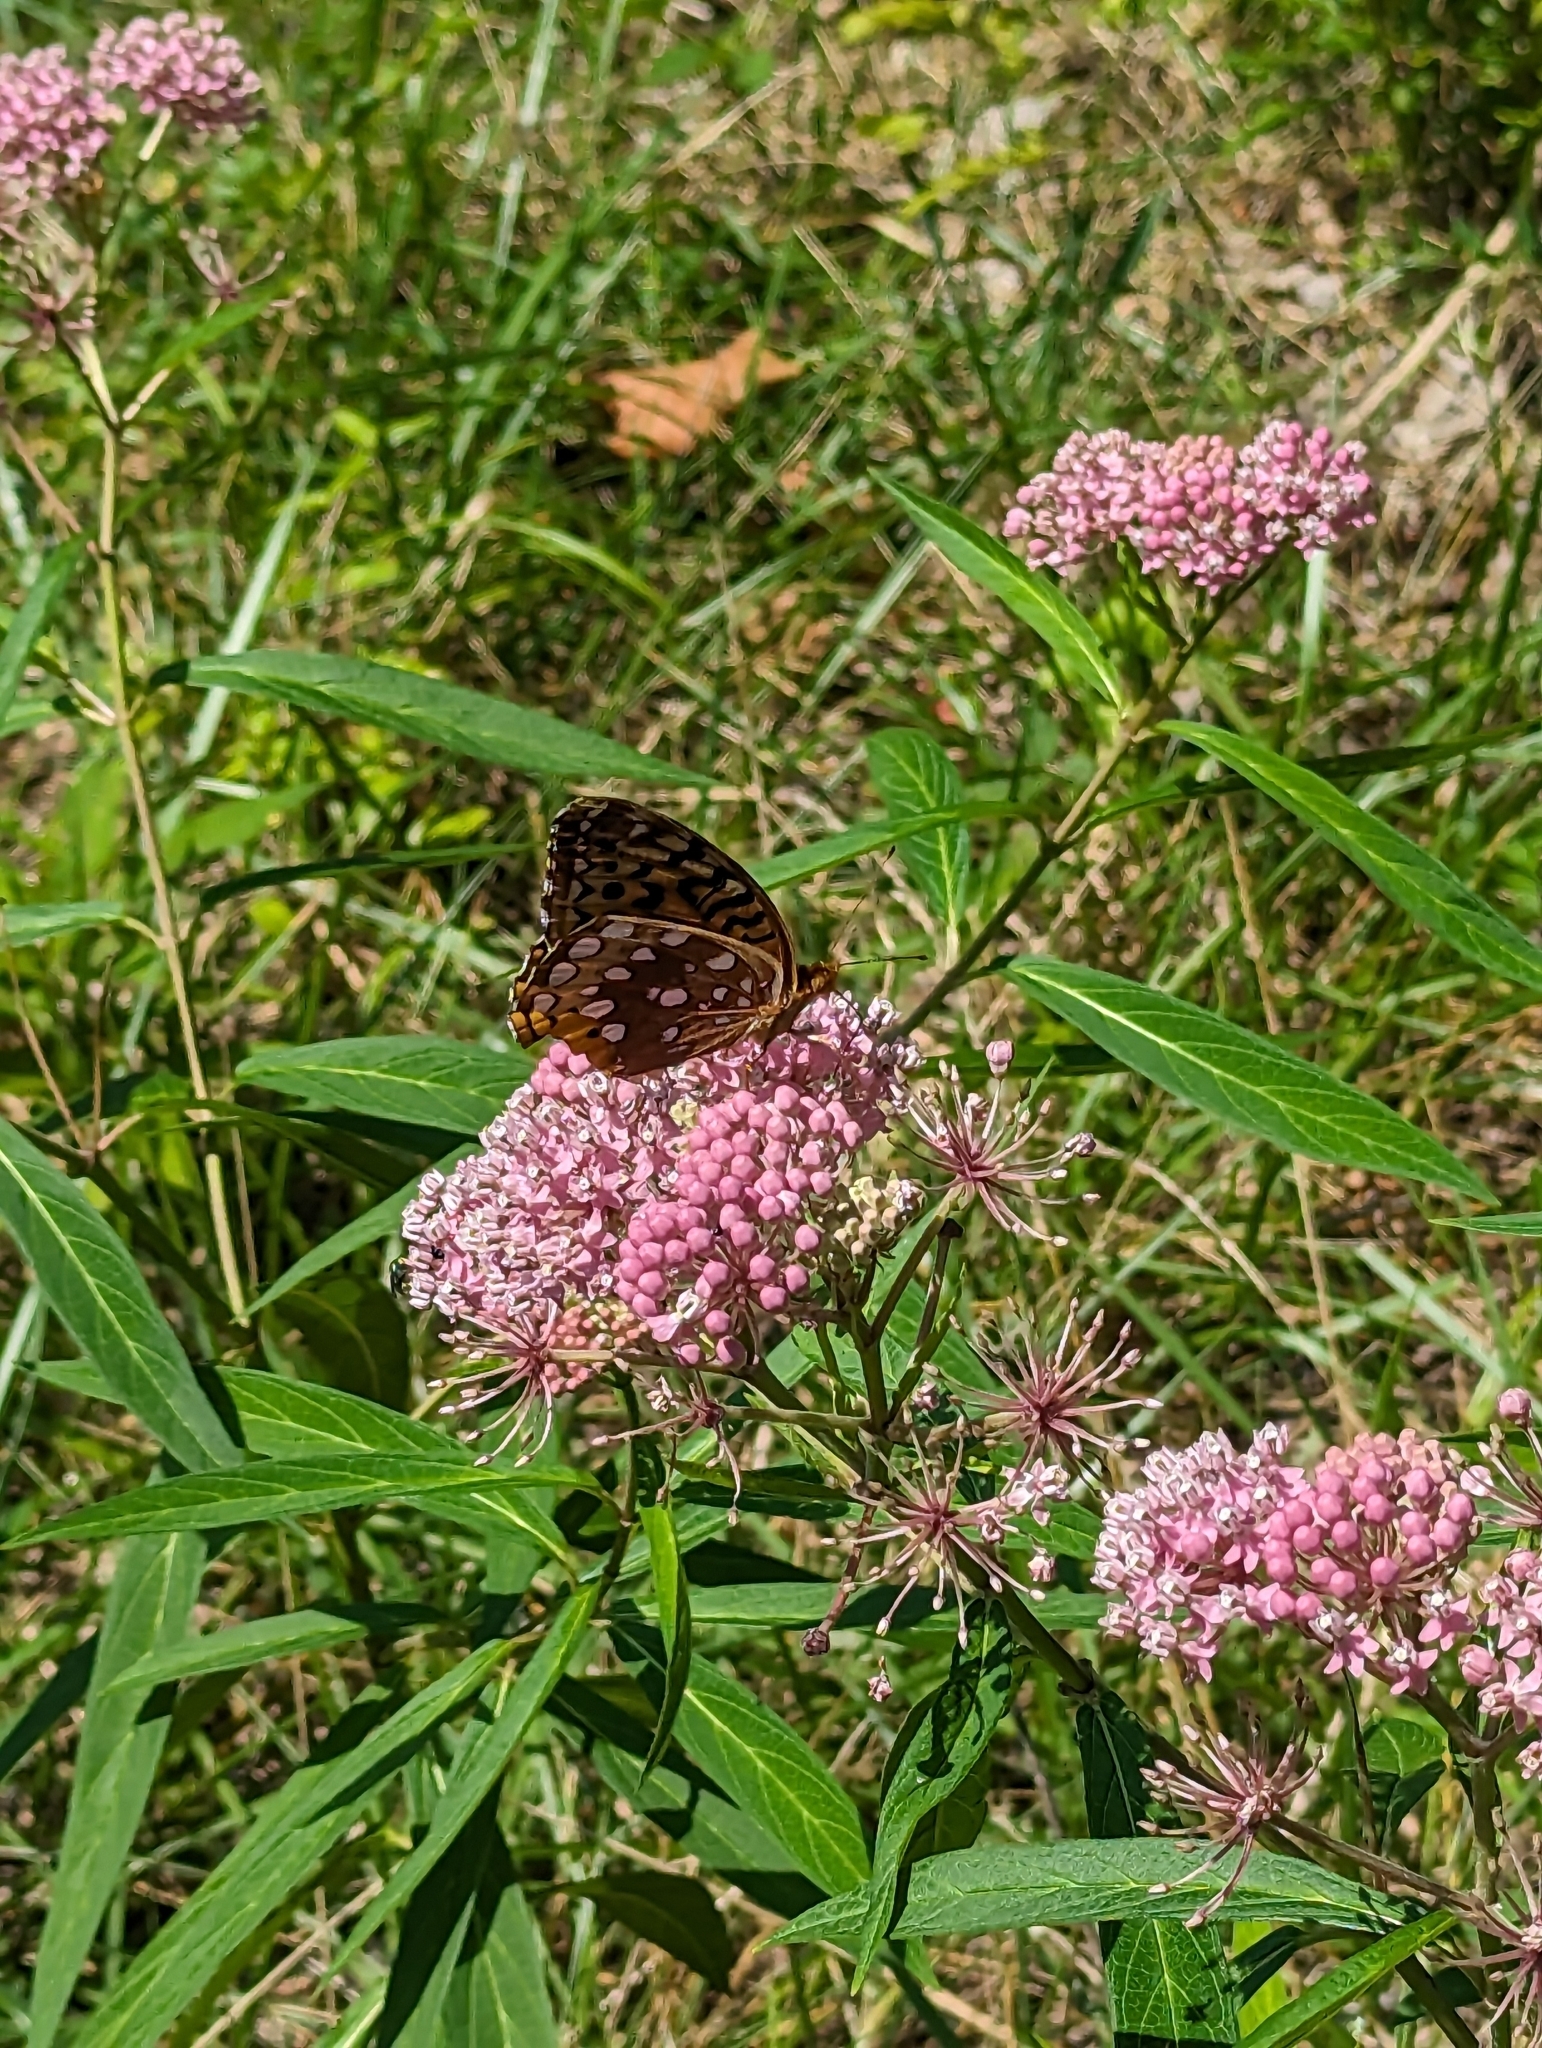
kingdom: Plantae
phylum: Tracheophyta
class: Magnoliopsida
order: Gentianales
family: Apocynaceae
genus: Asclepias
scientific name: Asclepias incarnata
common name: Swamp milkweed
